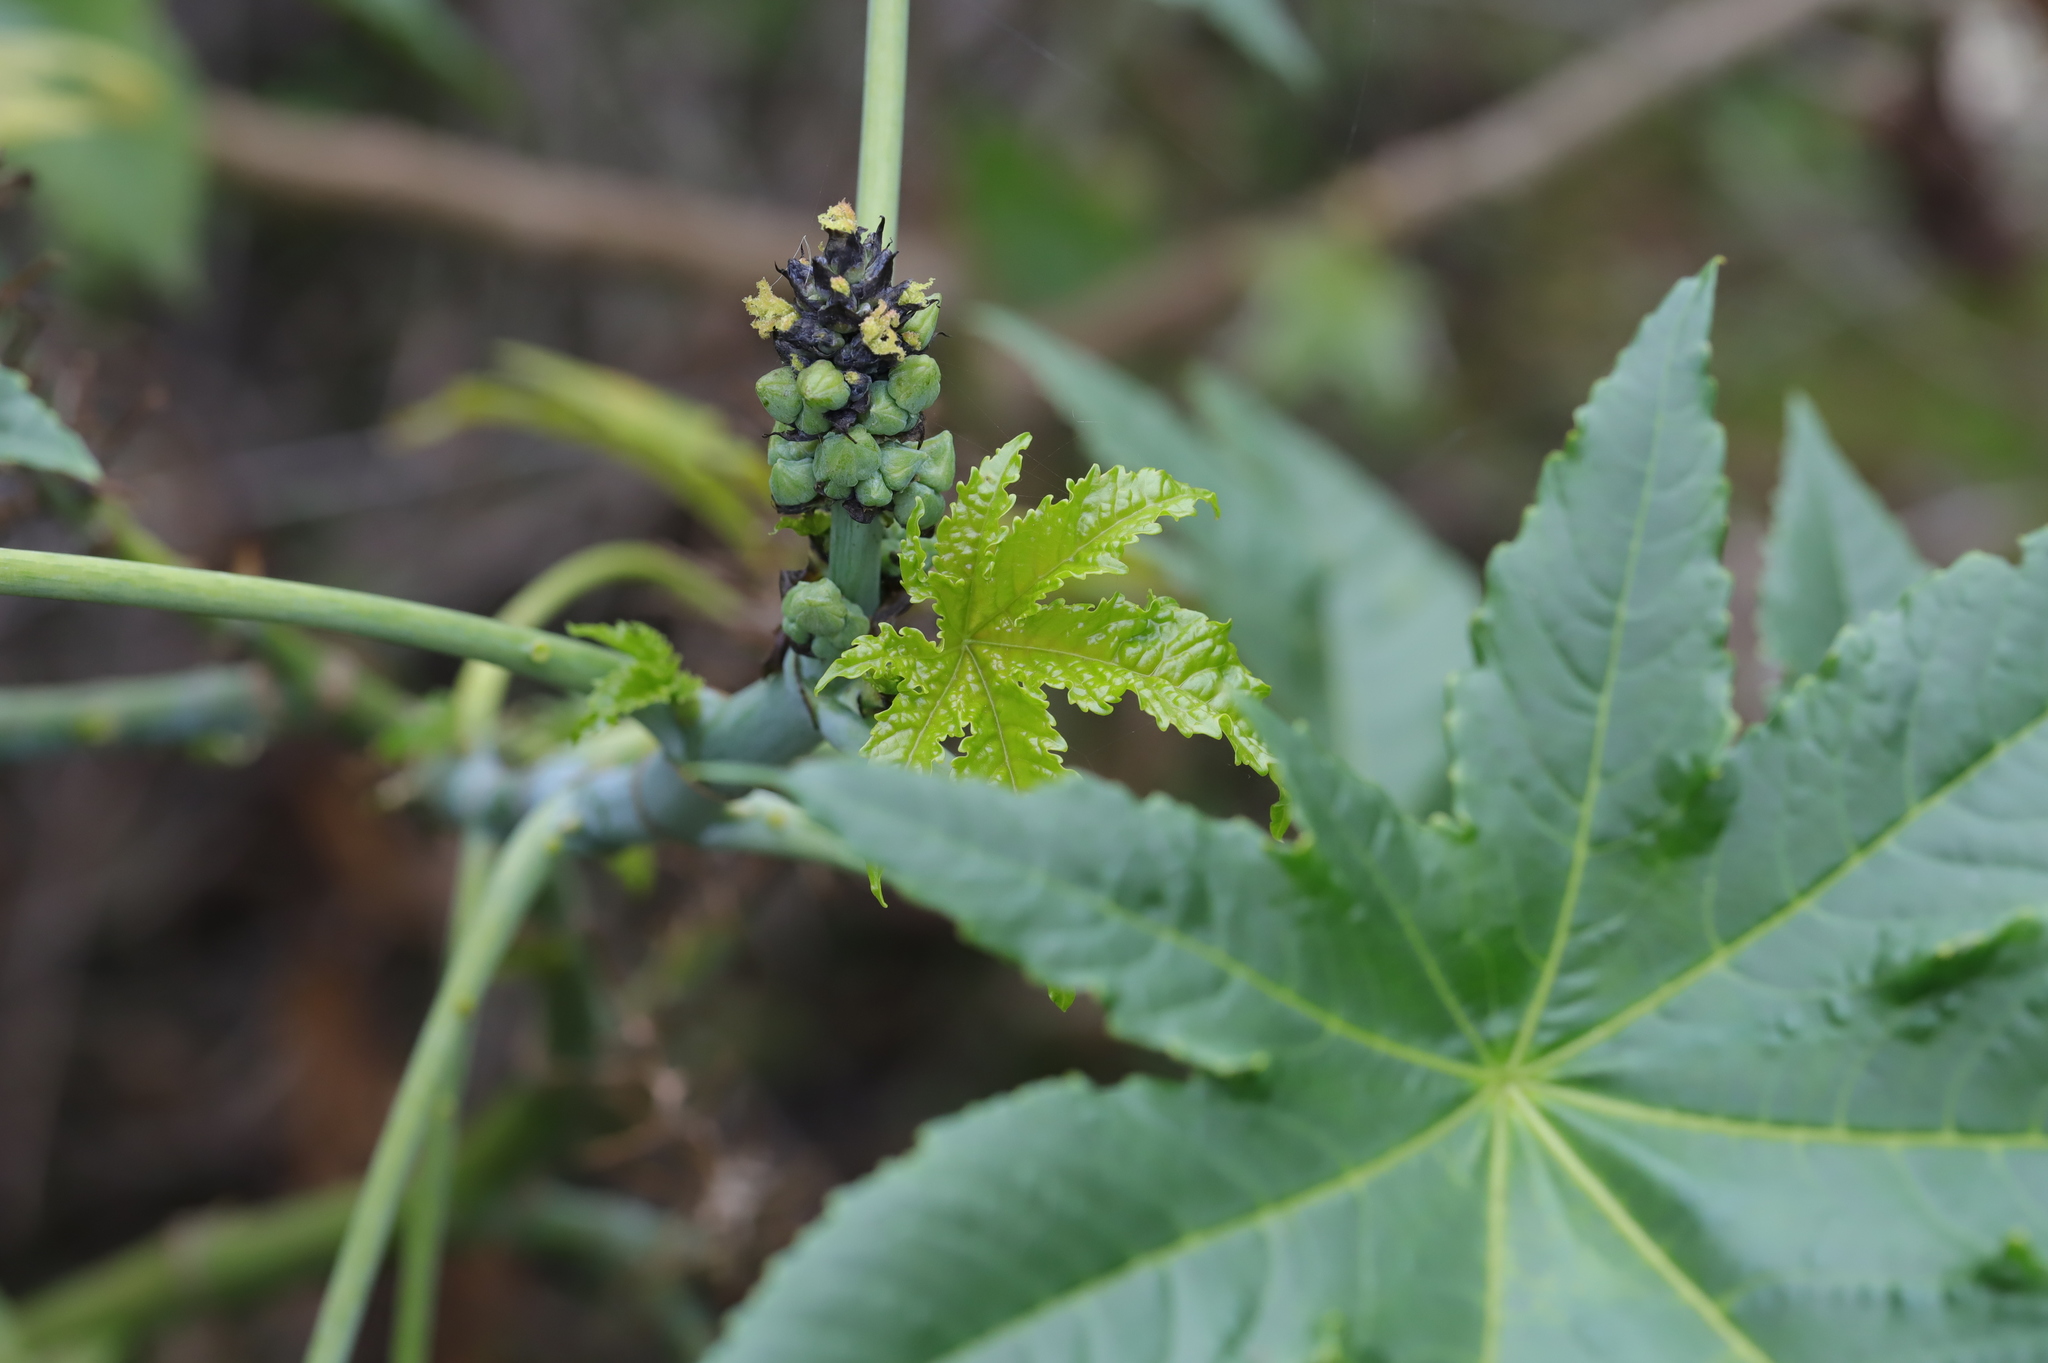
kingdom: Plantae
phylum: Tracheophyta
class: Magnoliopsida
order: Malpighiales
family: Euphorbiaceae
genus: Ricinus
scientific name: Ricinus communis
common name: Castor-oil-plant
